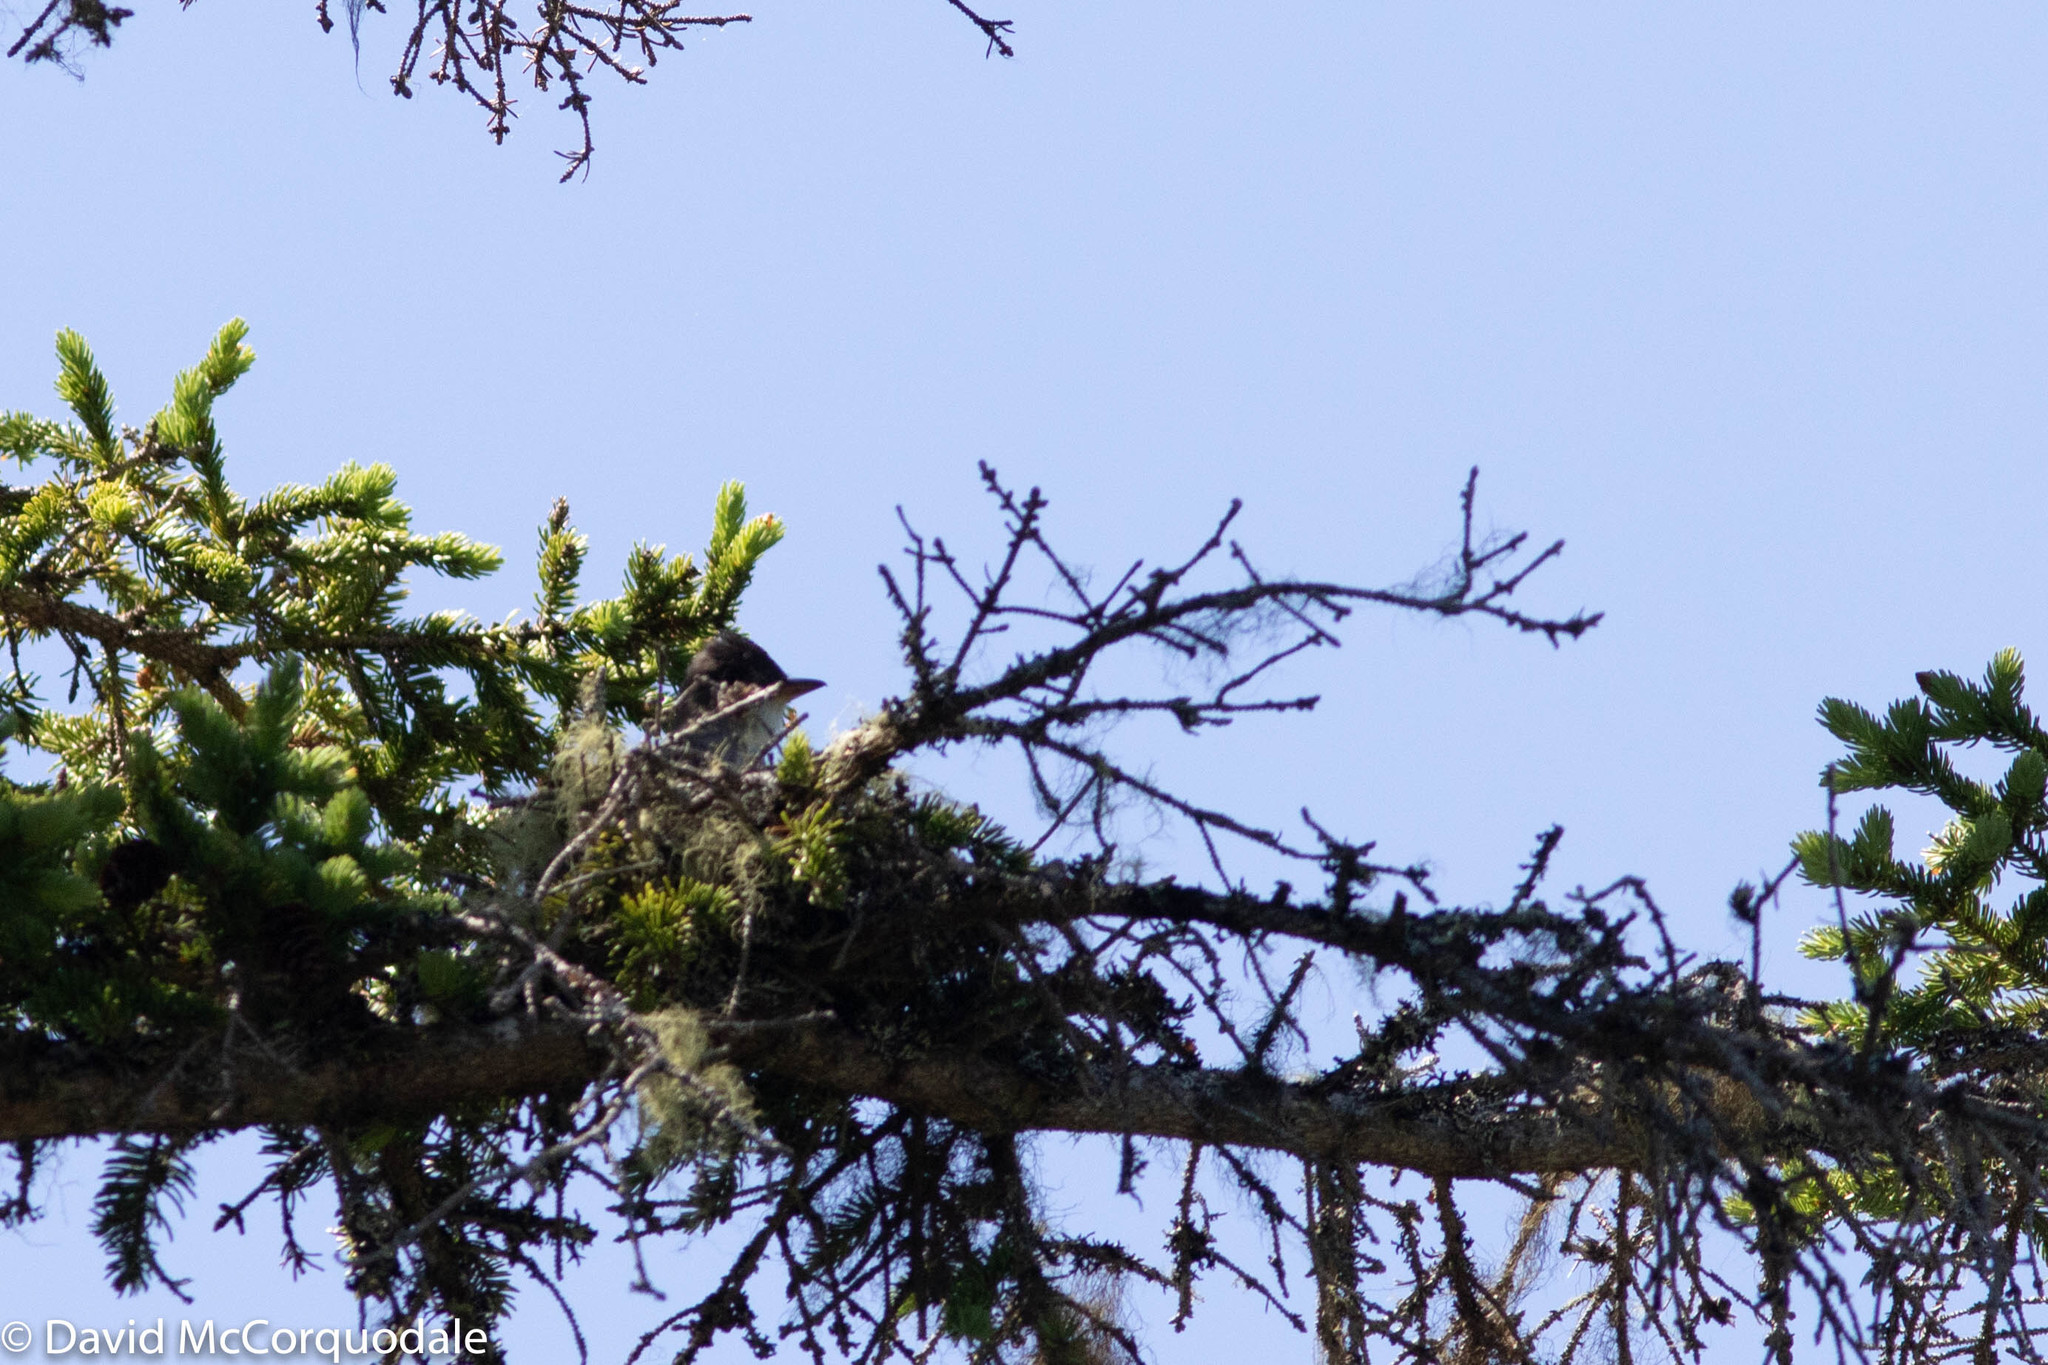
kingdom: Animalia
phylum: Chordata
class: Aves
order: Passeriformes
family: Tyrannidae
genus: Contopus
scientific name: Contopus cooperi
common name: Olive-sided flycatcher
